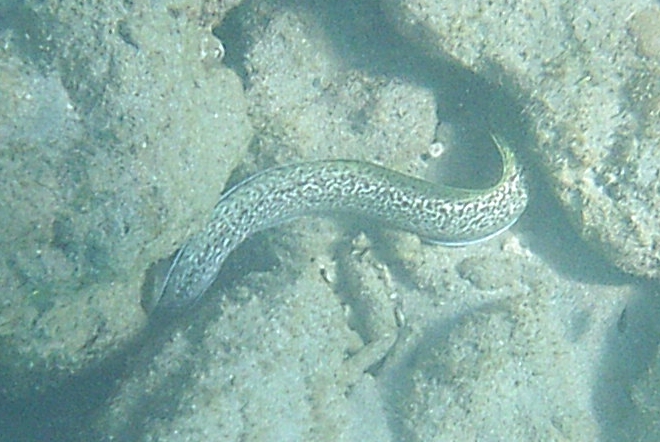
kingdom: Animalia
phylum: Chordata
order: Anguilliformes
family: Muraenidae
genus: Gymnothorax
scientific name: Gymnothorax moringa
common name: Spotted moray
